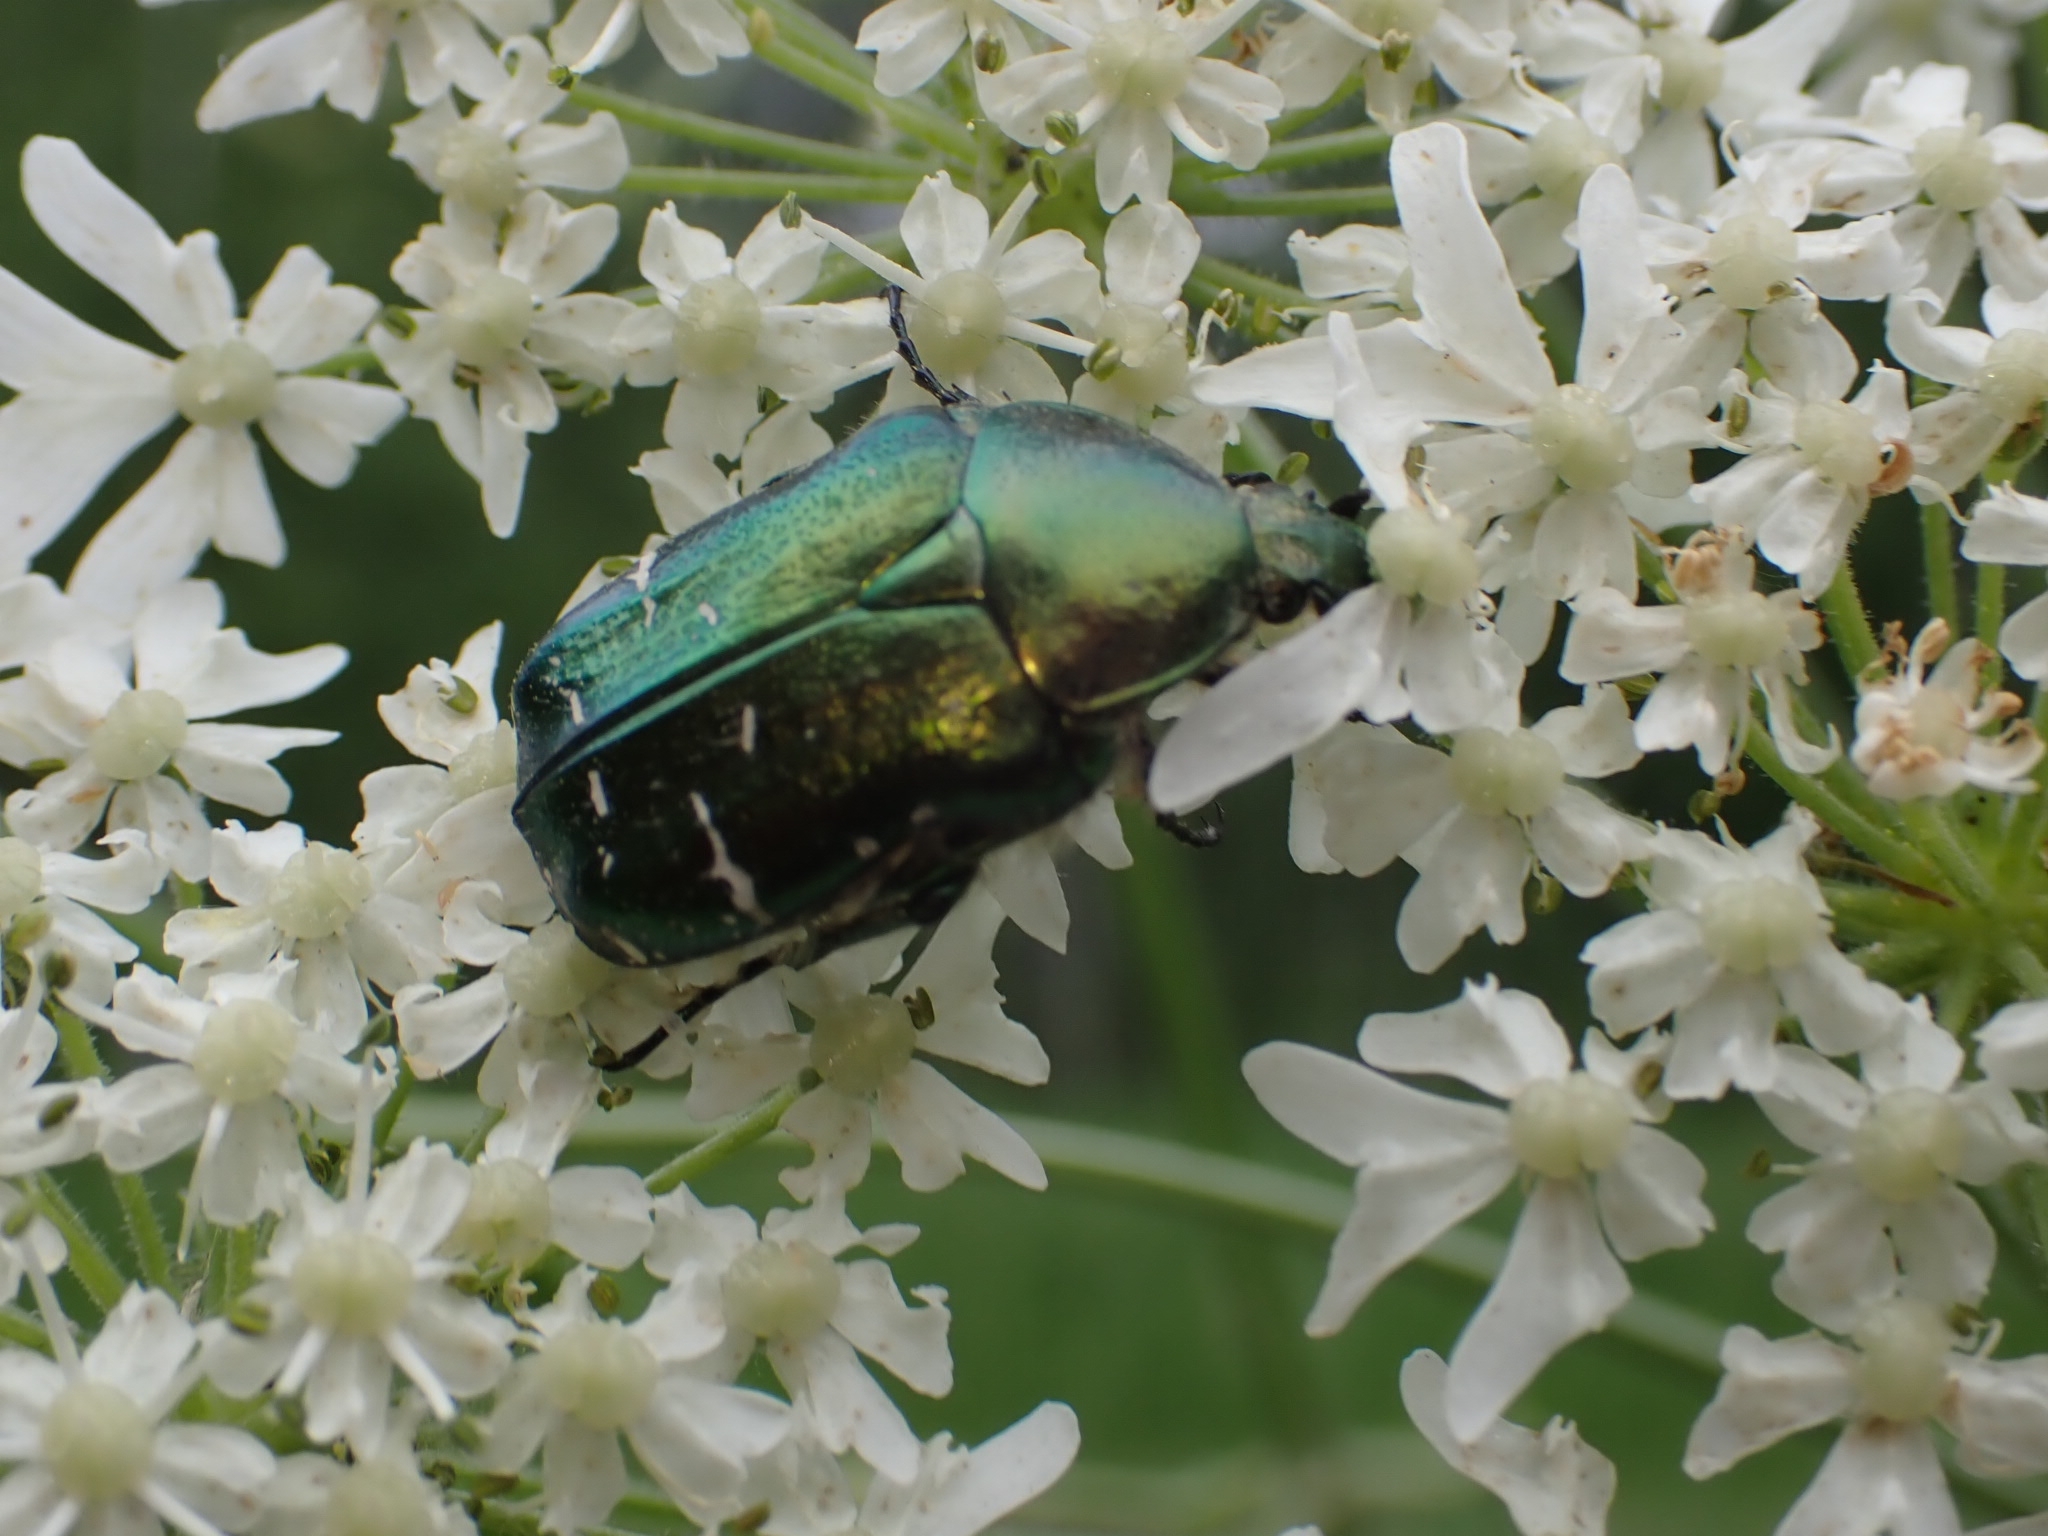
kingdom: Animalia
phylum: Arthropoda
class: Insecta
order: Coleoptera
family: Scarabaeidae
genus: Cetonia
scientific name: Cetonia aurata
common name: Rose chafer
